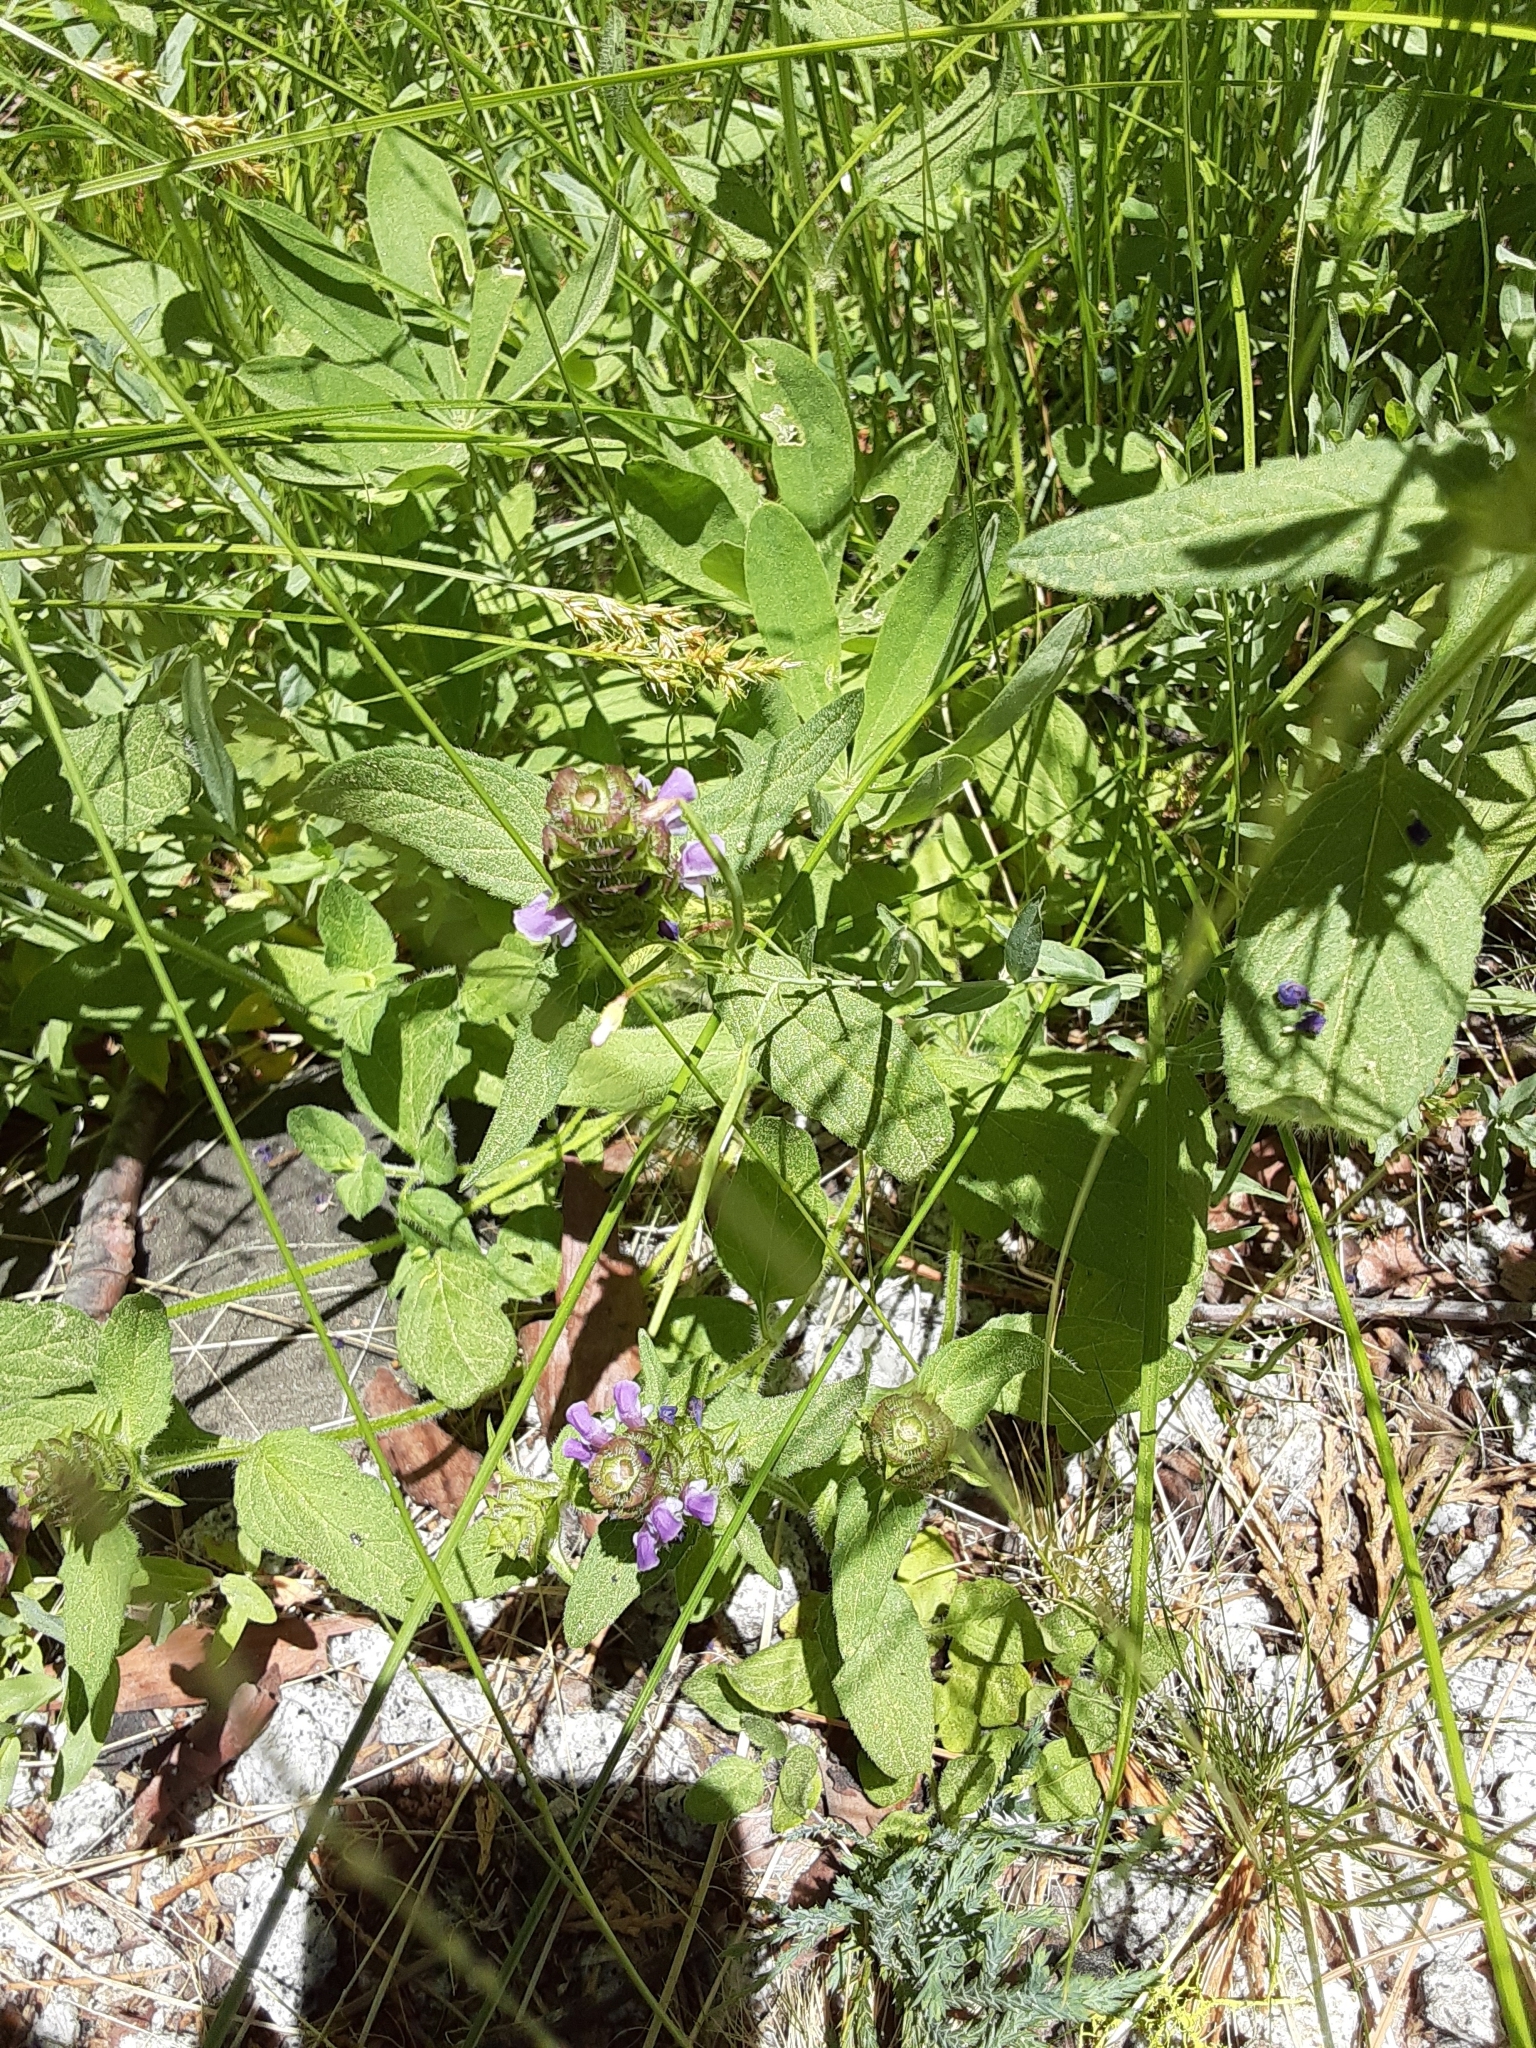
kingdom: Plantae
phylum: Tracheophyta
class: Magnoliopsida
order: Lamiales
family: Lamiaceae
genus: Prunella
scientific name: Prunella vulgaris
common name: Heal-all
